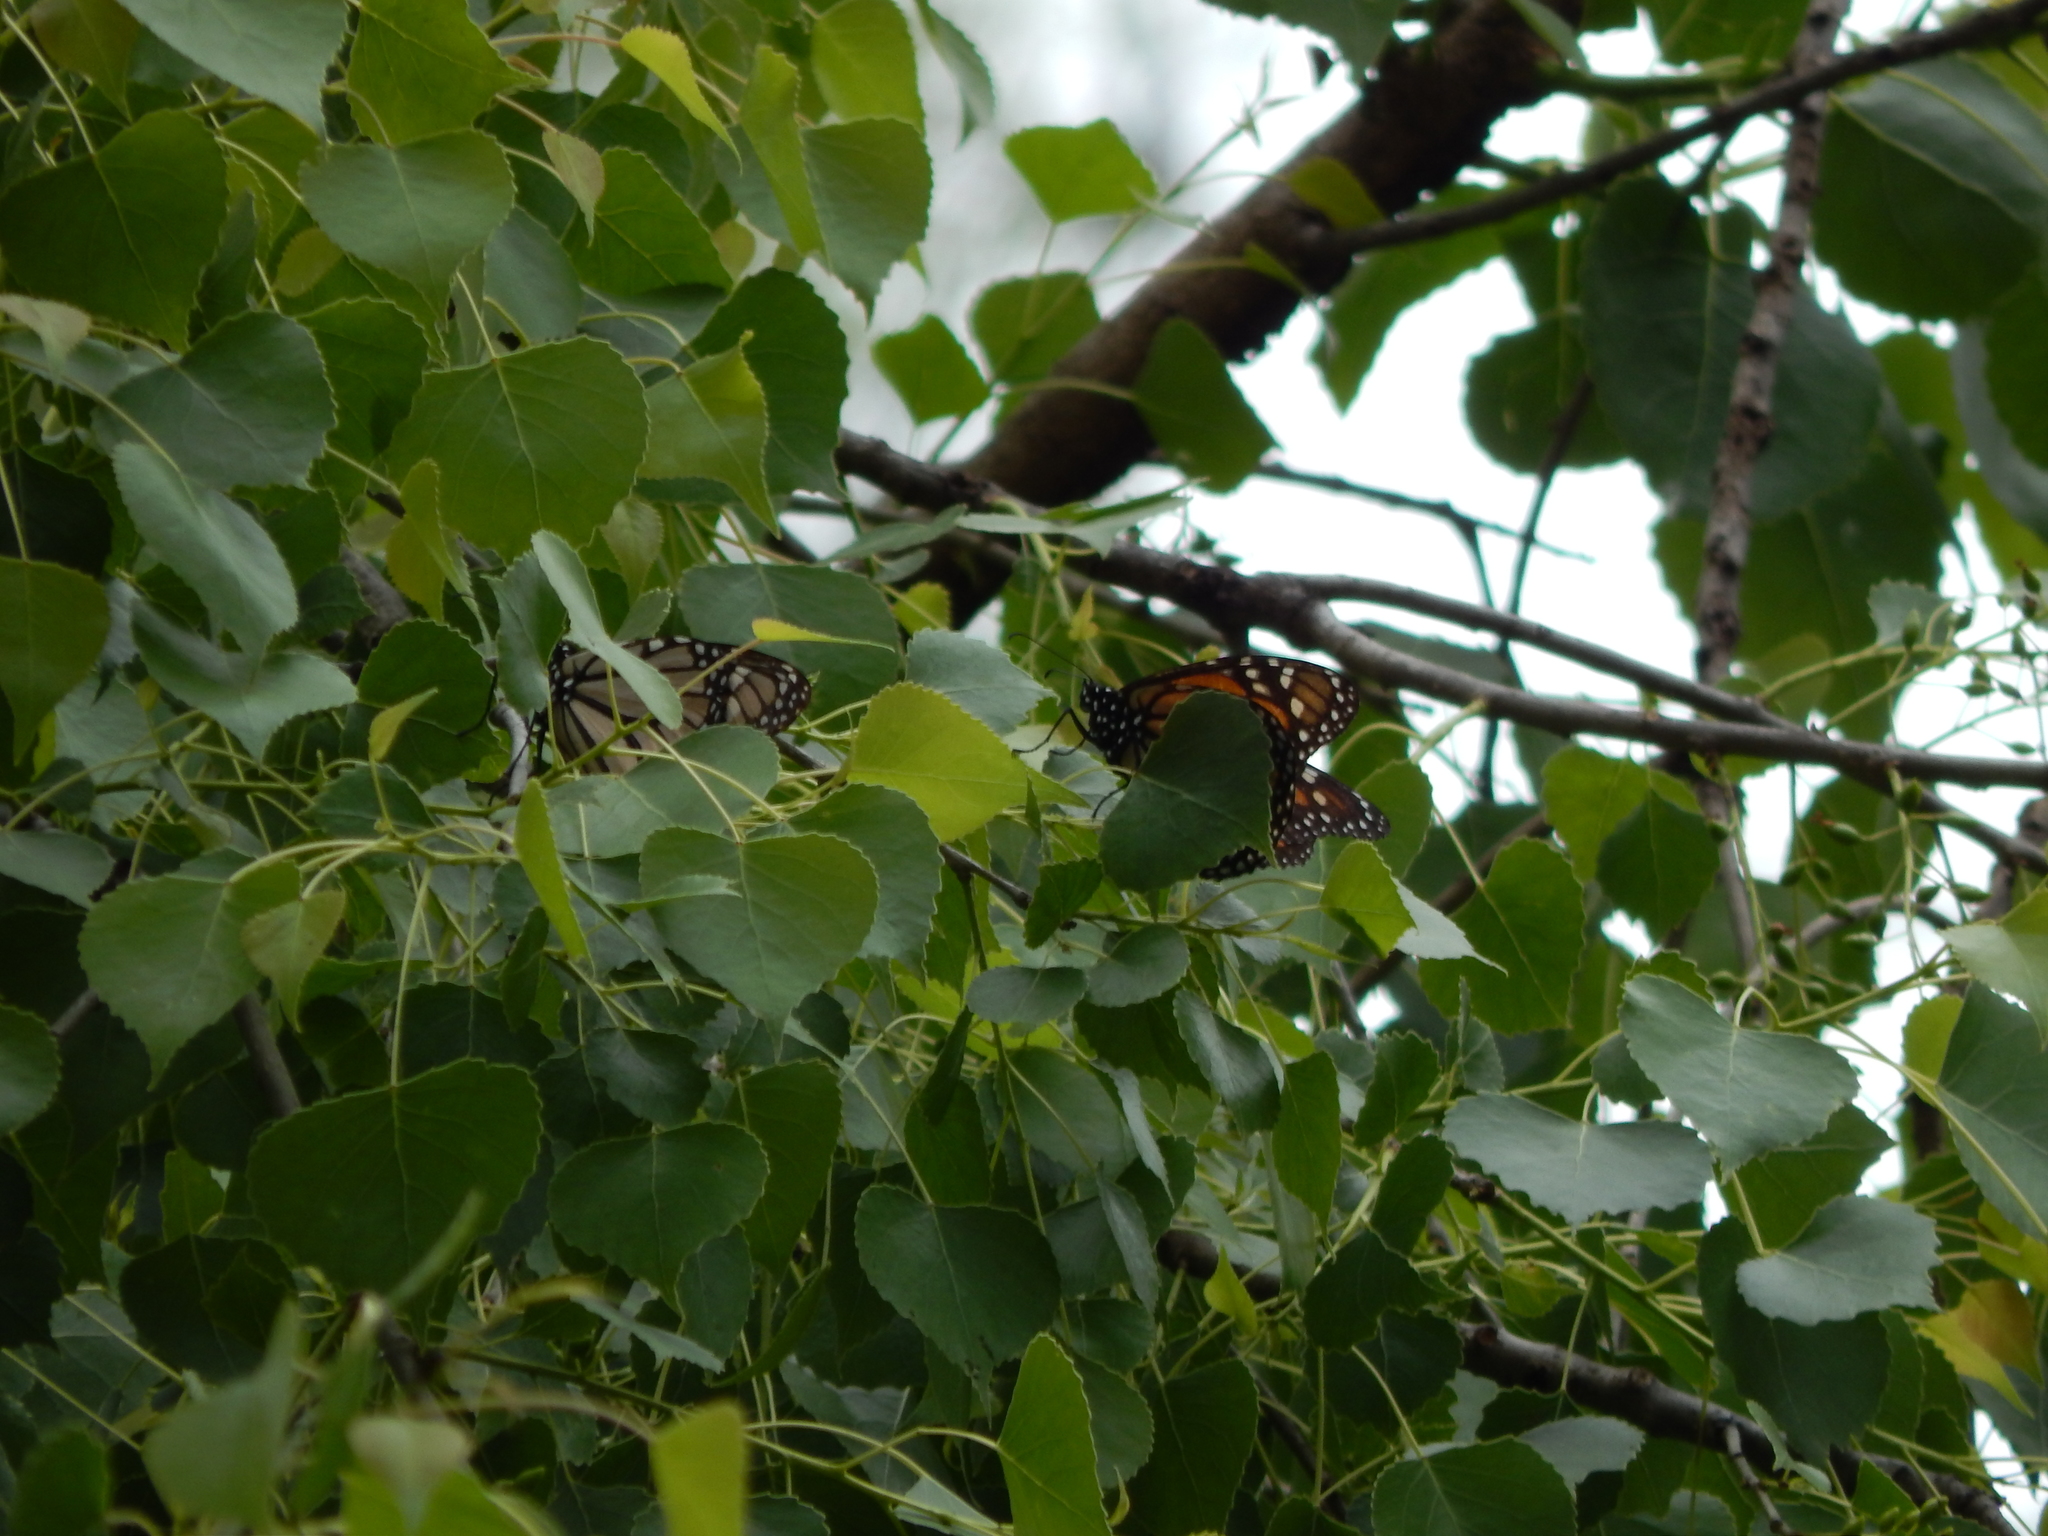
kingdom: Animalia
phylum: Arthropoda
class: Insecta
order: Lepidoptera
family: Nymphalidae
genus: Danaus
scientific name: Danaus plexippus
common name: Monarch
